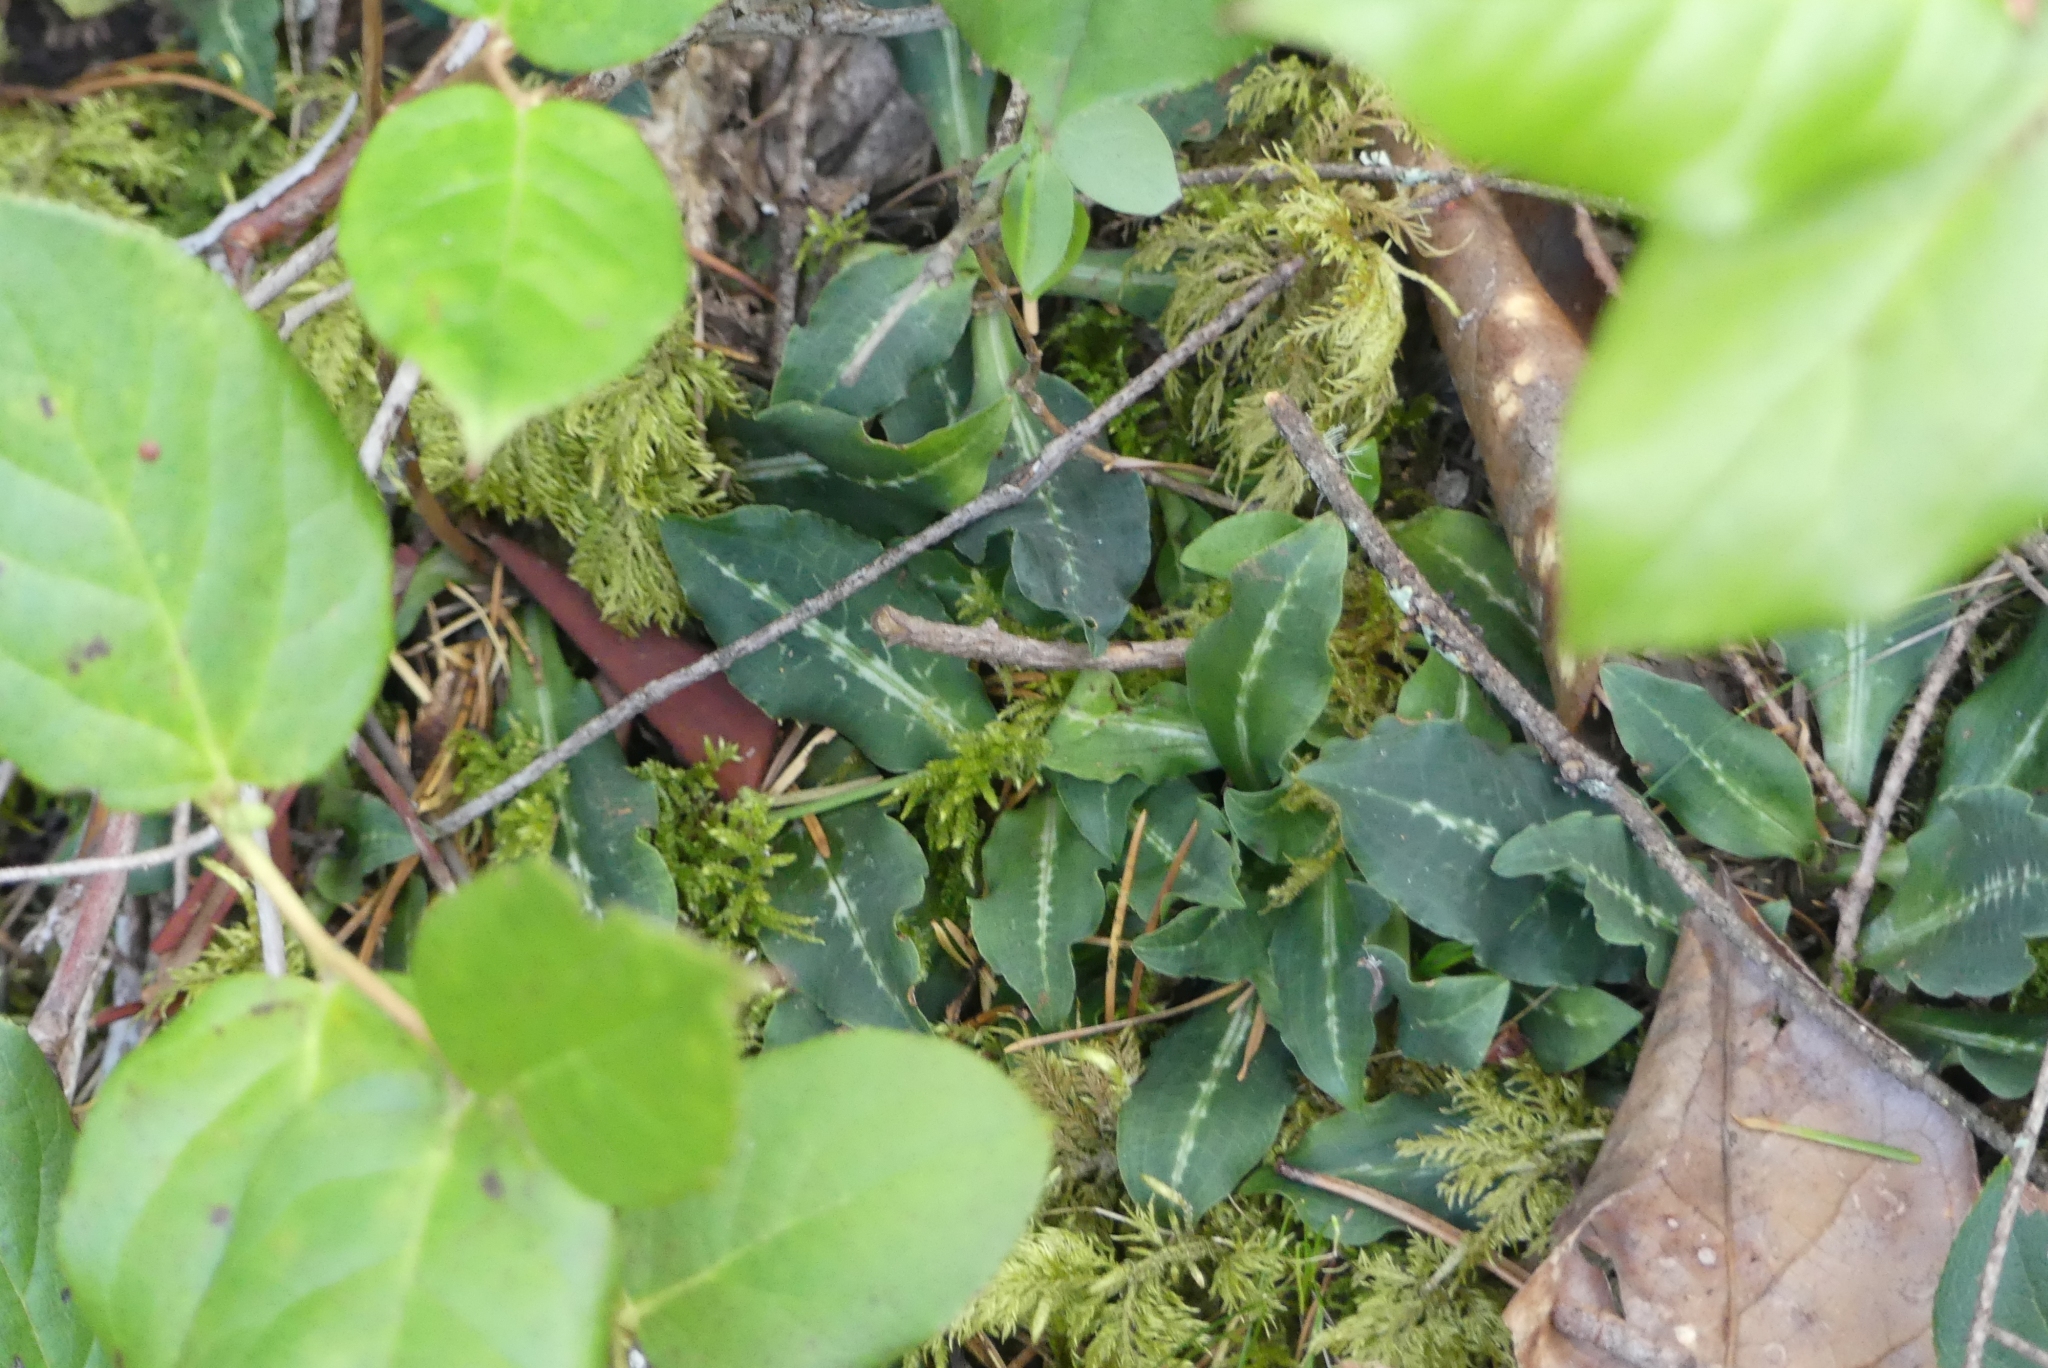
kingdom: Plantae
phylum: Tracheophyta
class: Liliopsida
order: Asparagales
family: Orchidaceae
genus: Goodyera
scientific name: Goodyera oblongifolia
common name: Giant rattlesnake-plantain
